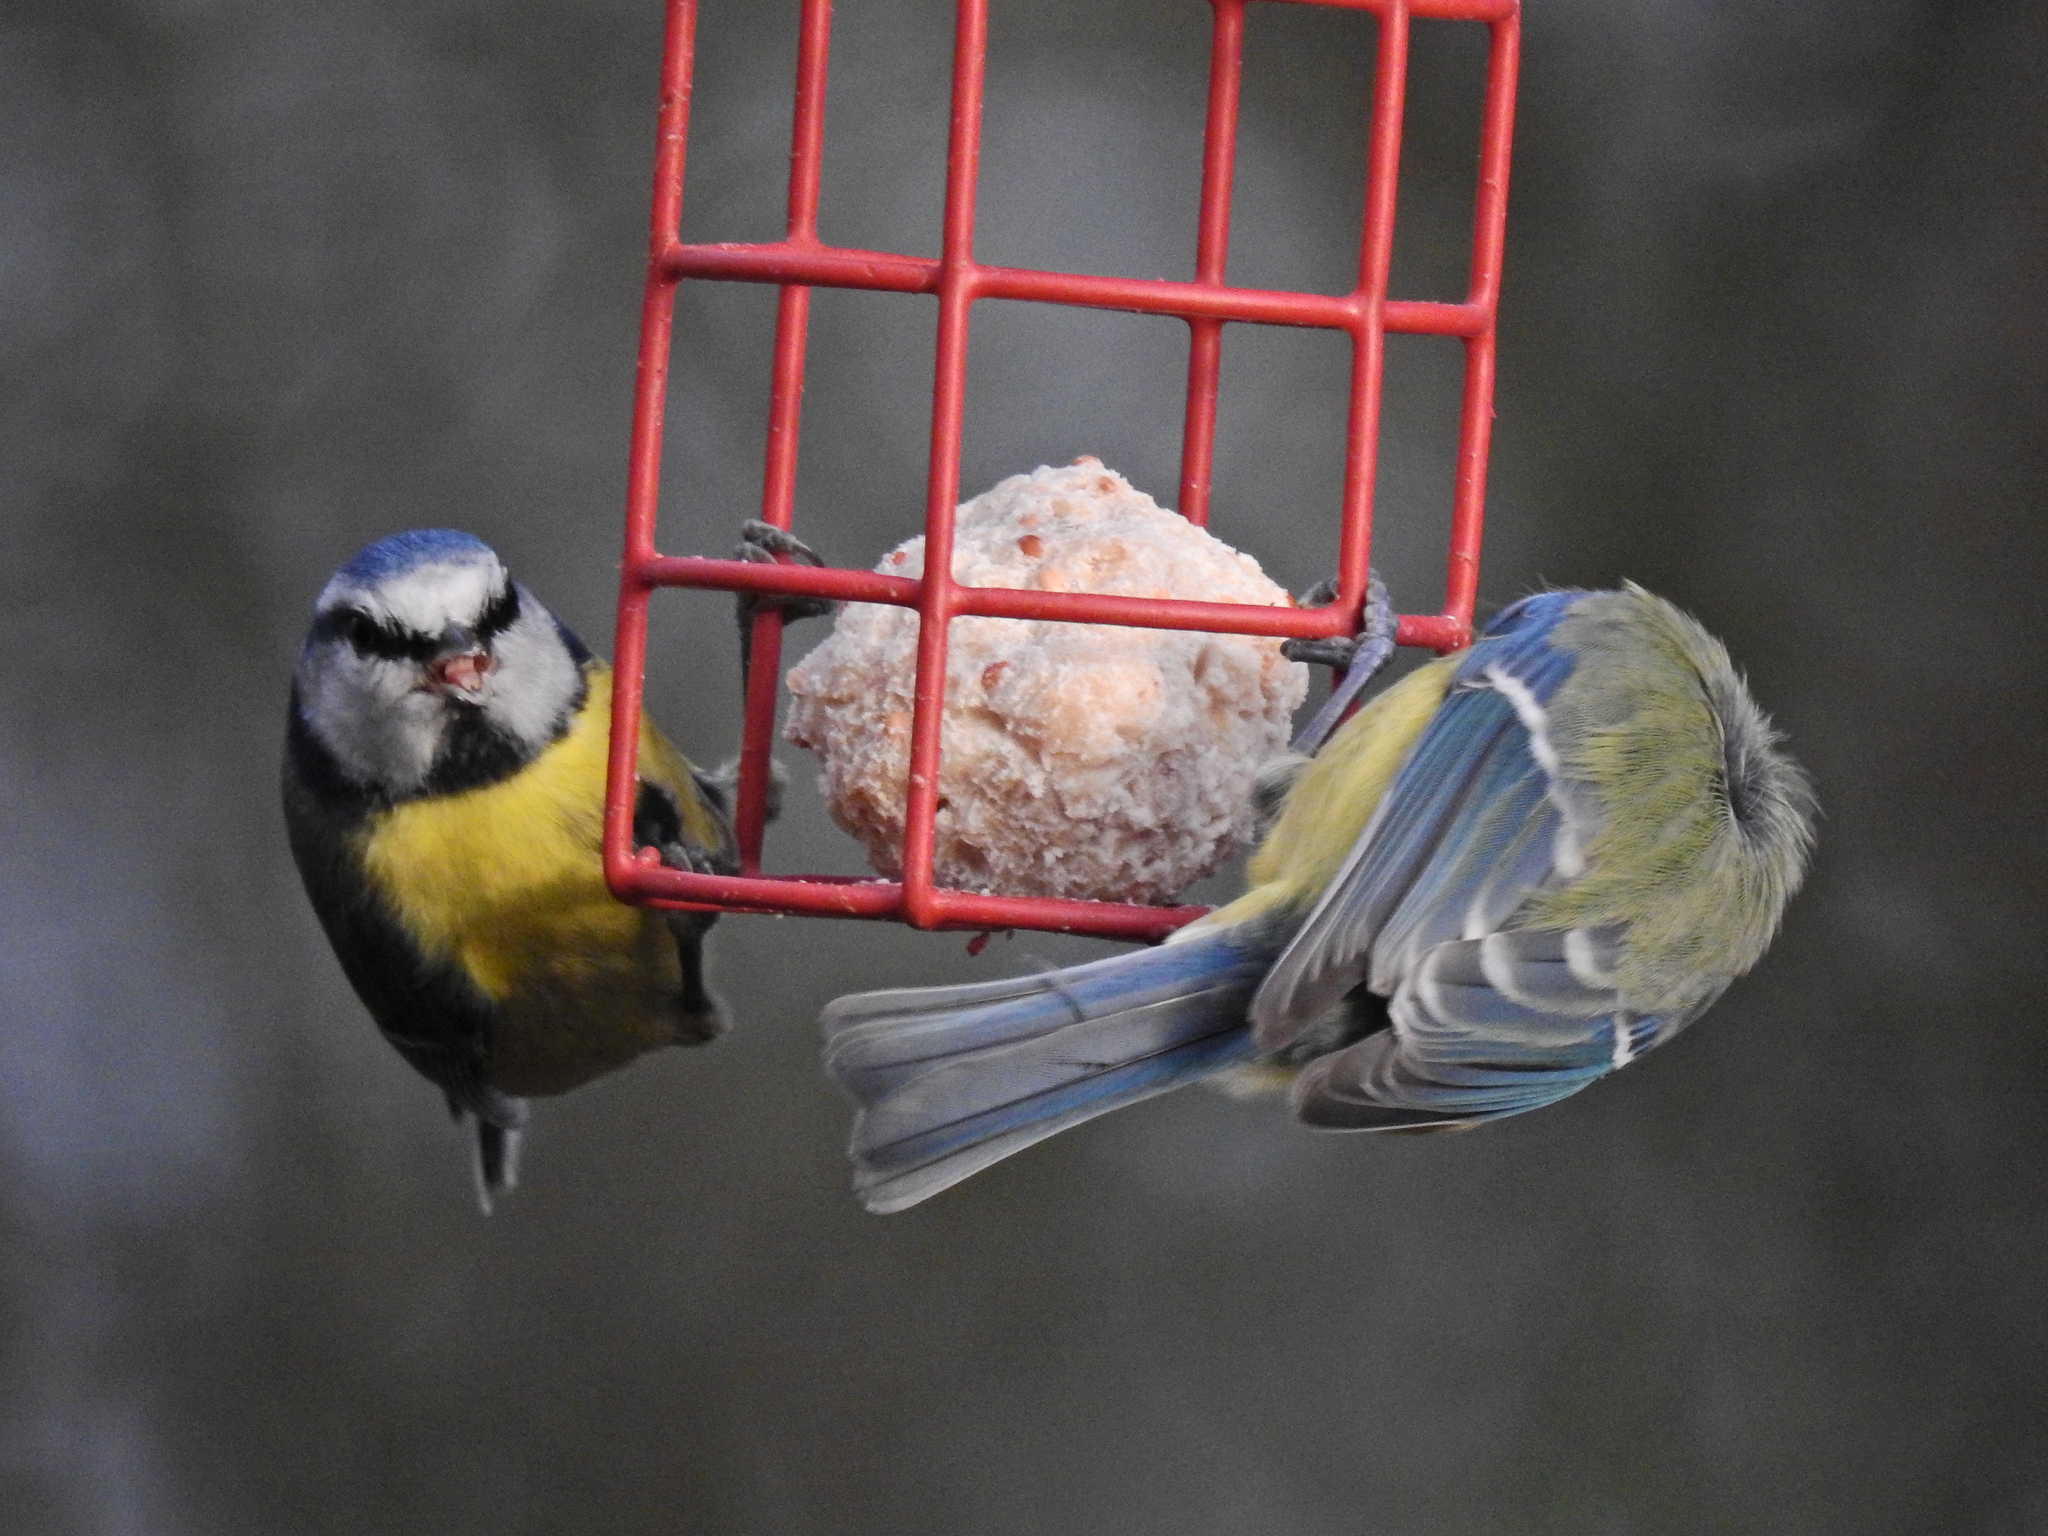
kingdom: Animalia
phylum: Chordata
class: Aves
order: Passeriformes
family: Paridae
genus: Cyanistes
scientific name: Cyanistes caeruleus
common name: Eurasian blue tit
